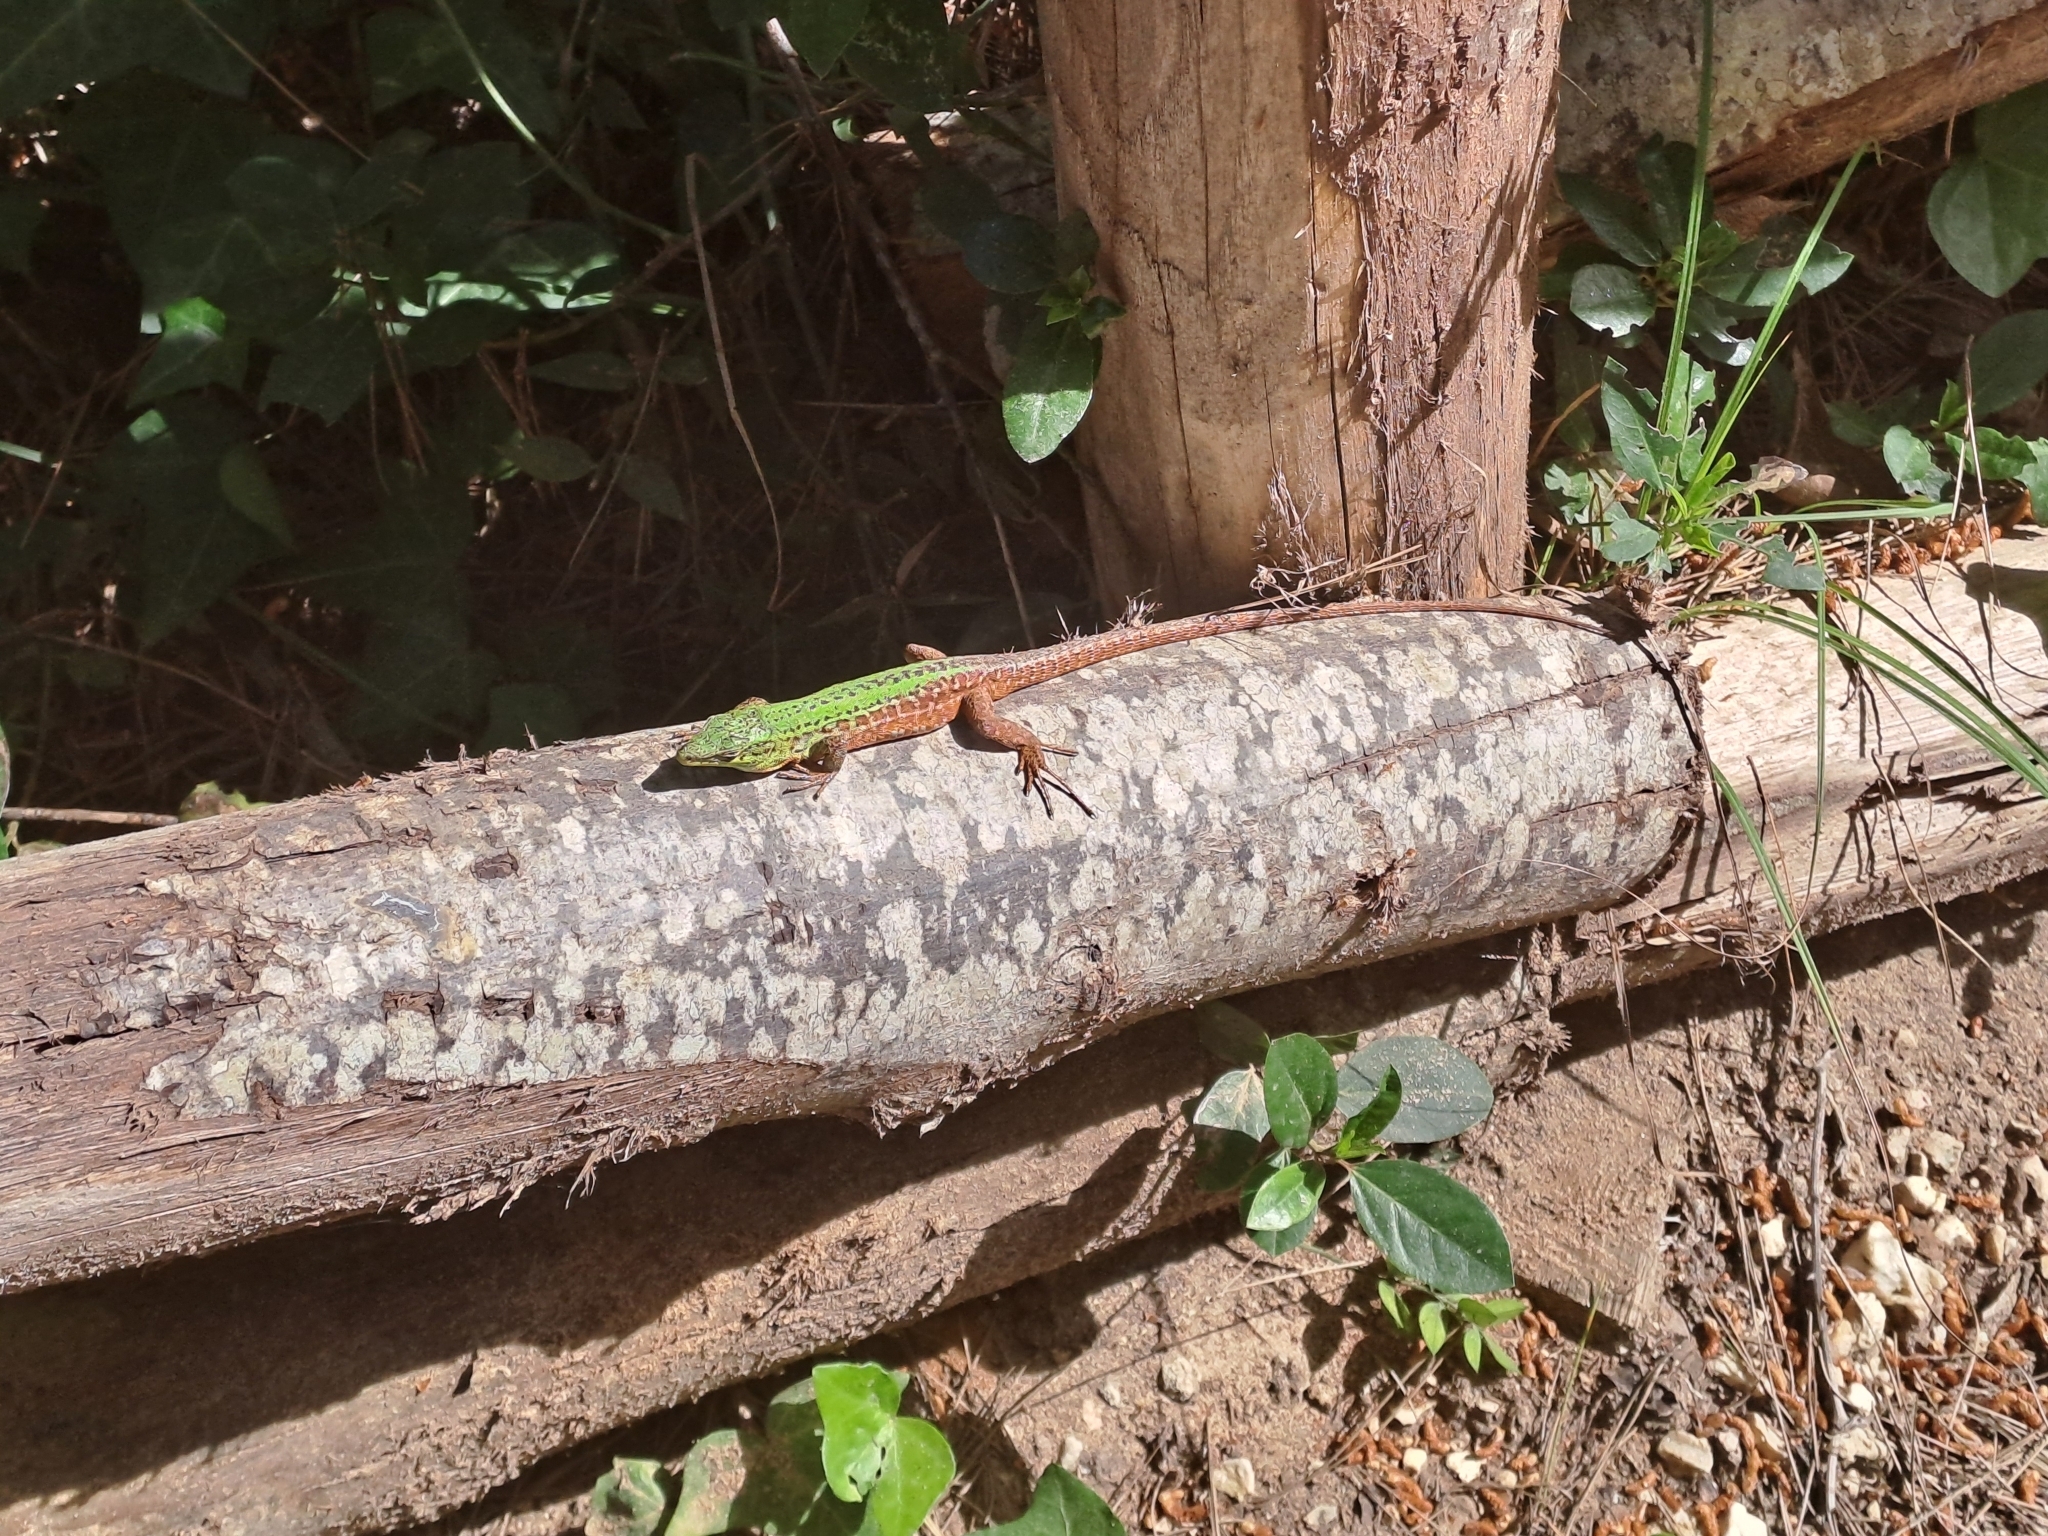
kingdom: Animalia
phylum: Chordata
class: Squamata
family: Lacertidae
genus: Podarcis
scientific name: Podarcis siculus
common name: Italian wall lizard
